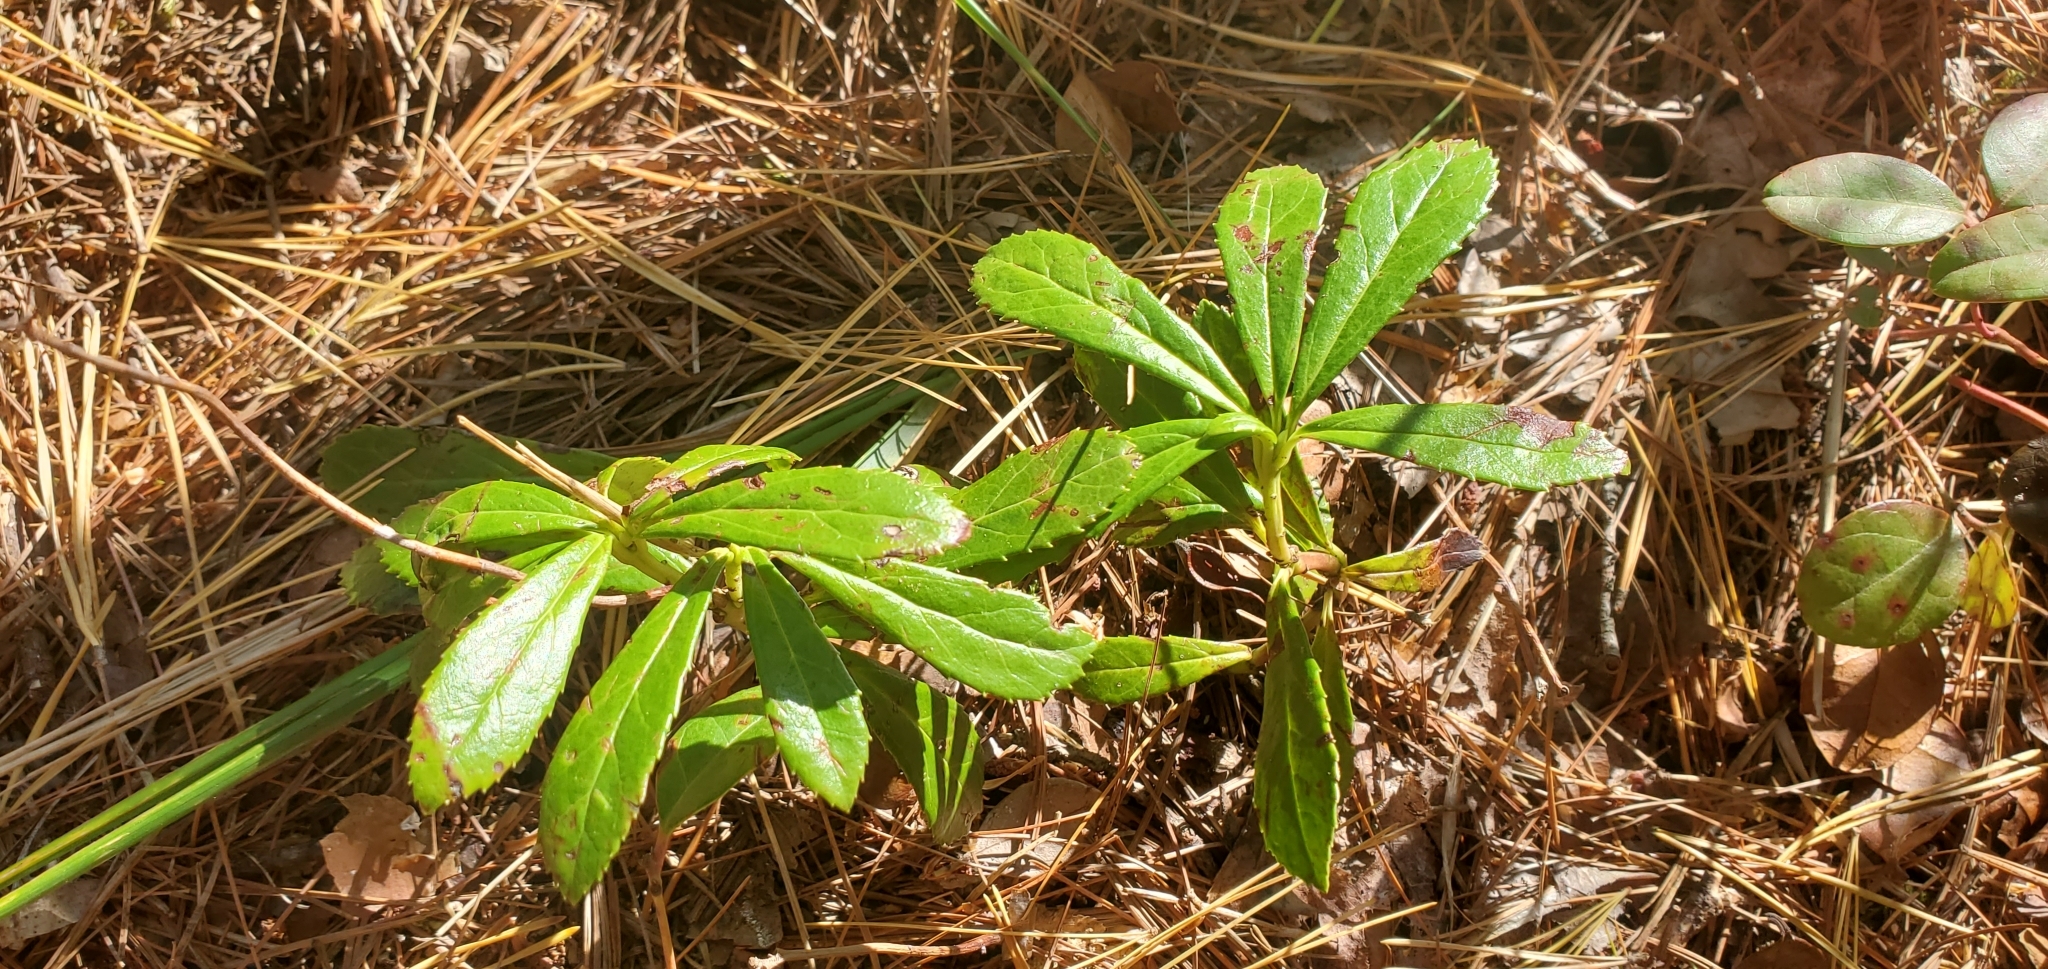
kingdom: Plantae
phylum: Tracheophyta
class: Magnoliopsida
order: Ericales
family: Ericaceae
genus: Chimaphila
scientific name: Chimaphila umbellata
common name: Pipsissewa
